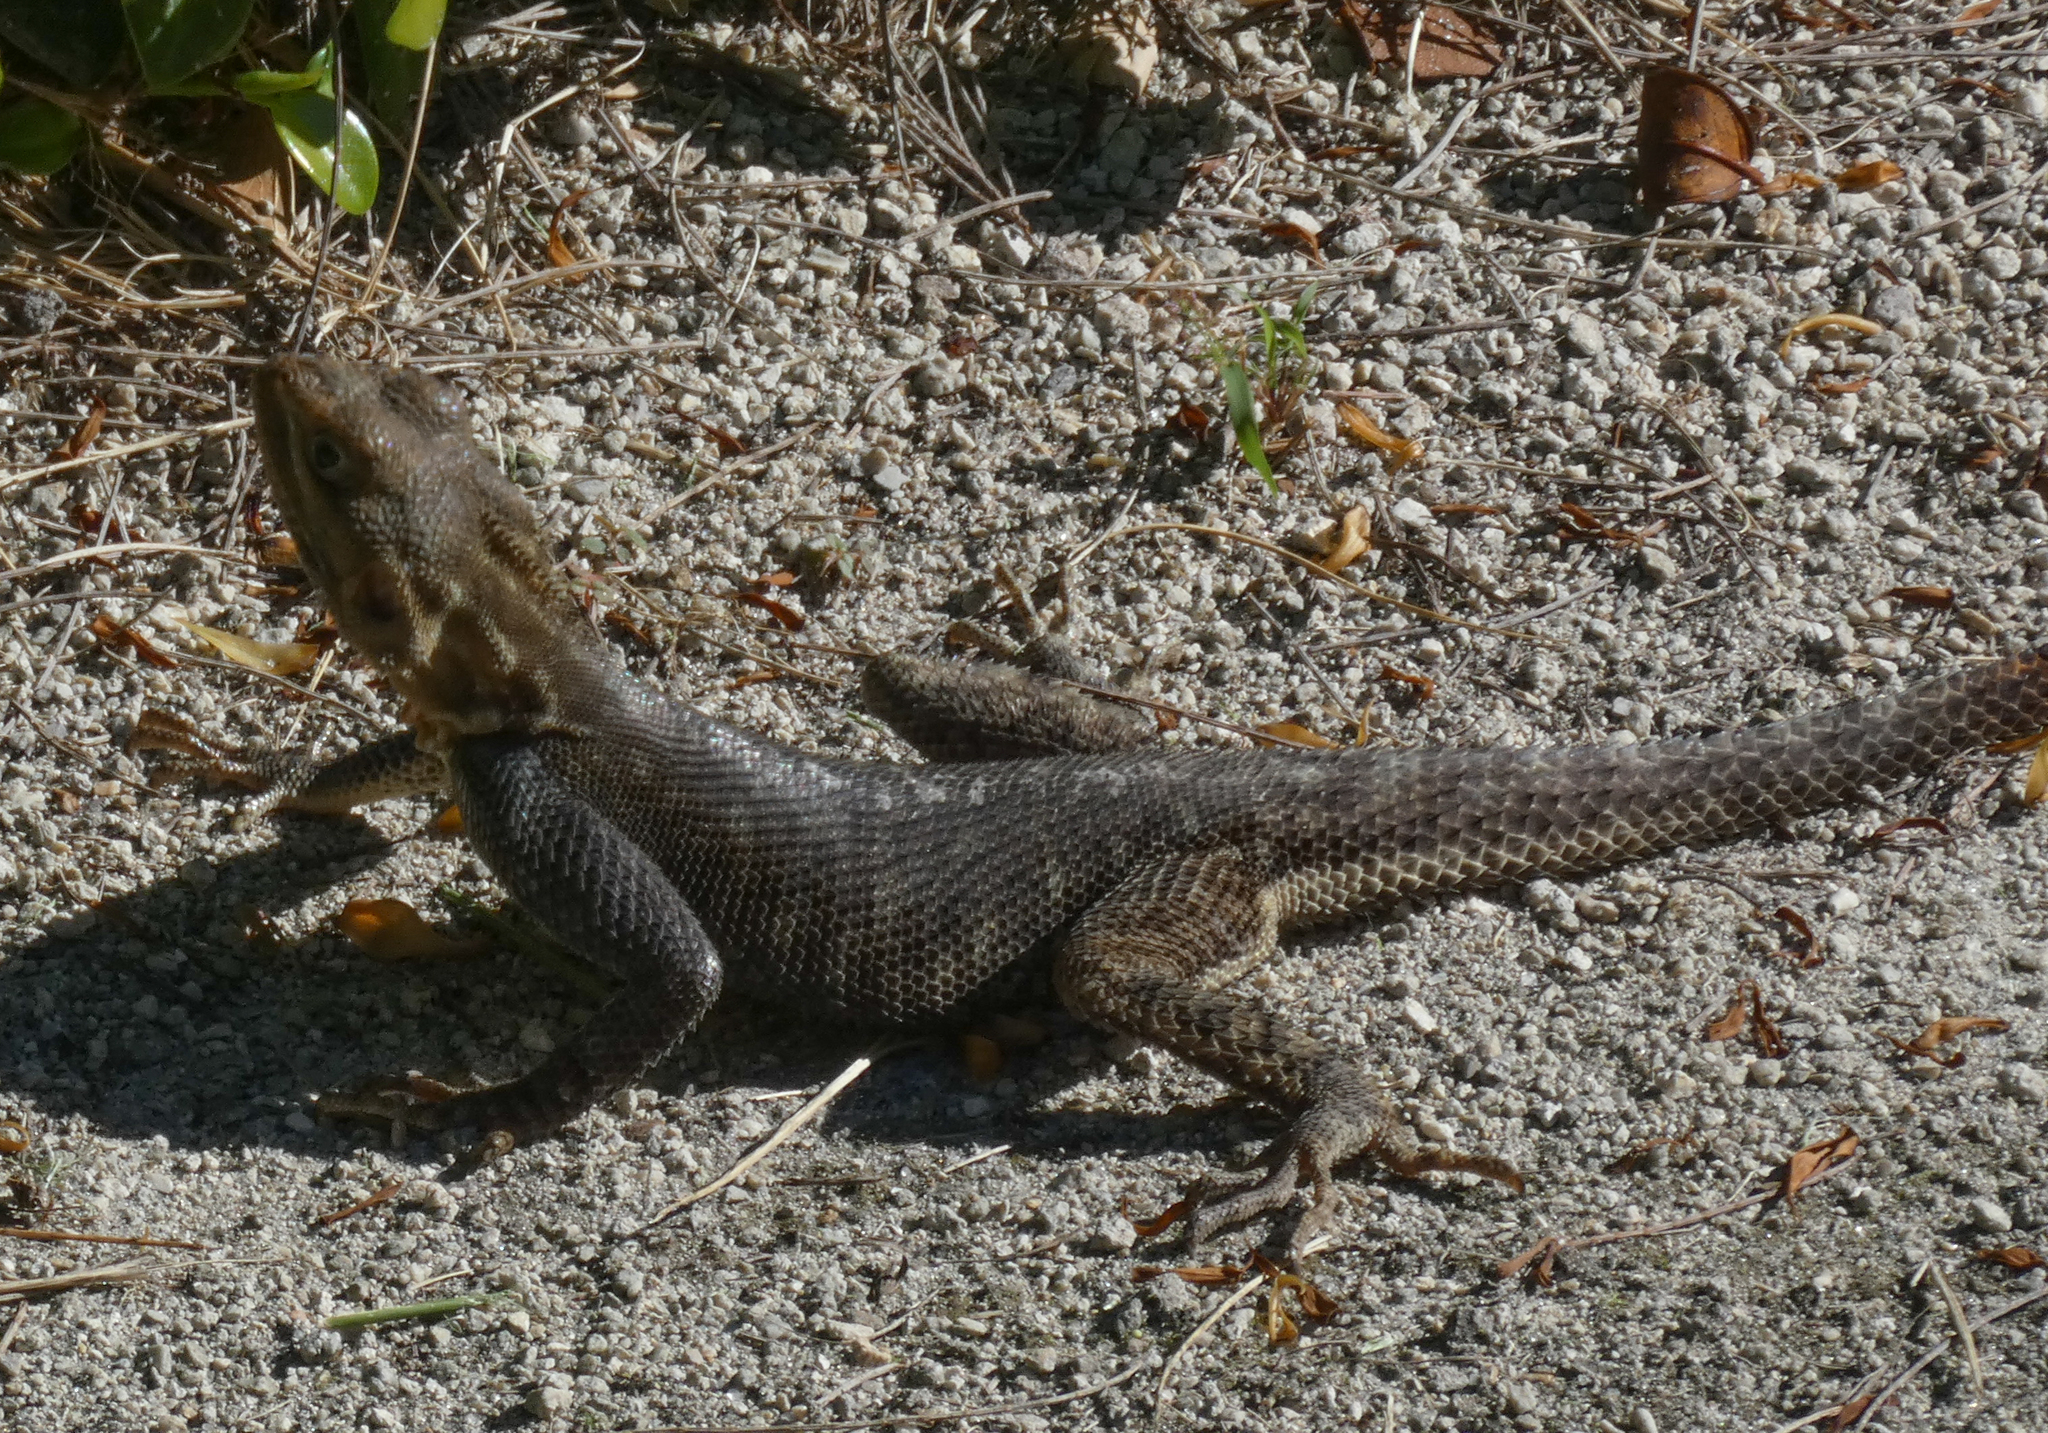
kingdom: Animalia
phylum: Chordata
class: Squamata
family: Agamidae
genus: Agama
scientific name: Agama picticauda
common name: Red-headed agama
